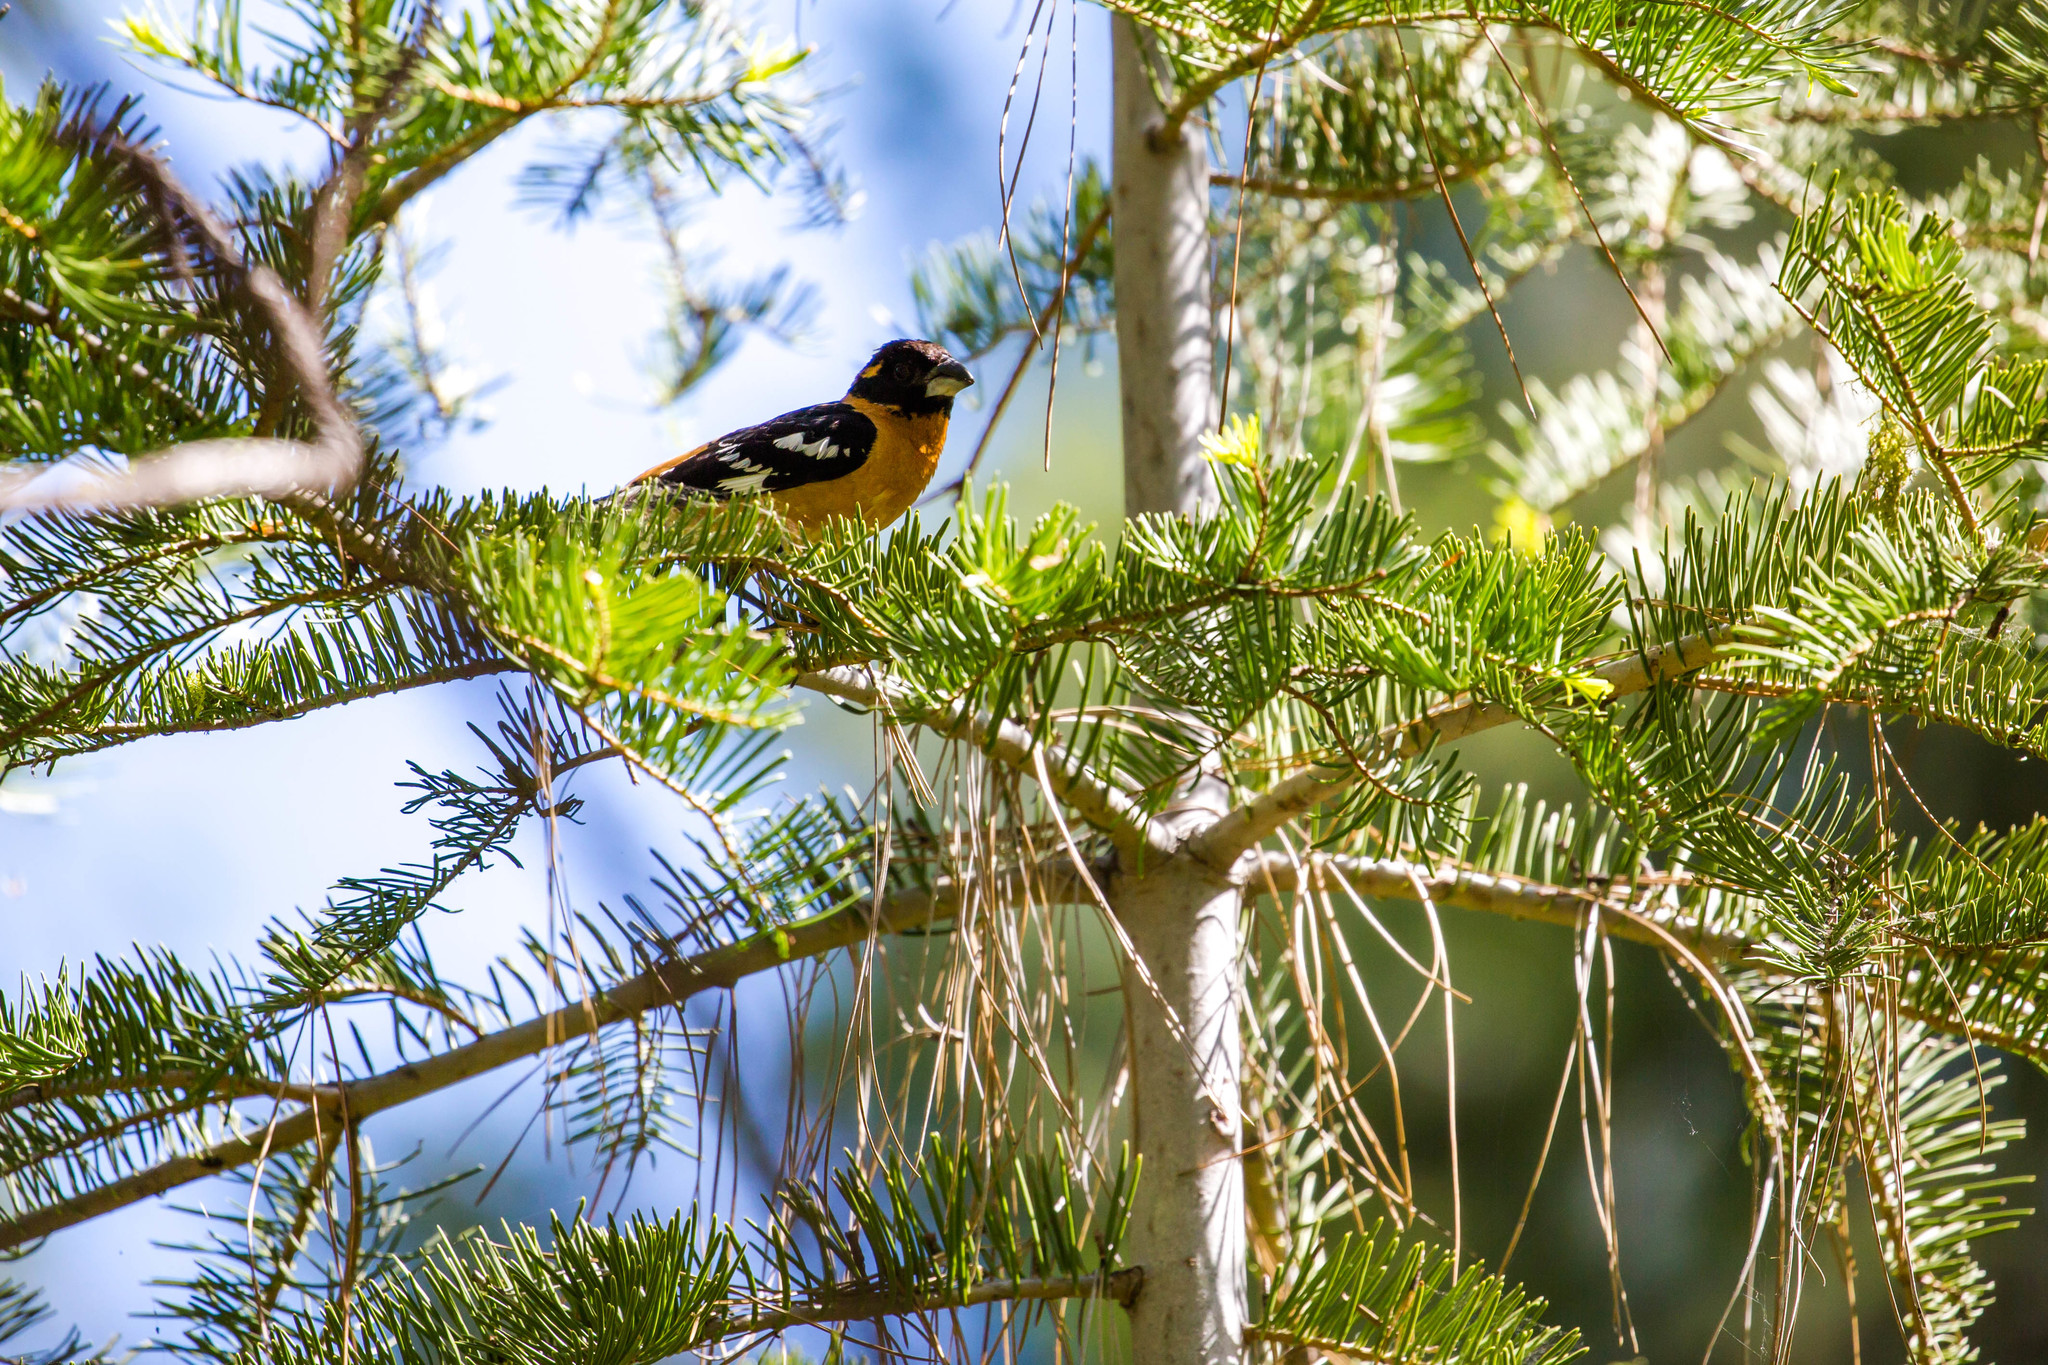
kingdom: Animalia
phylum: Chordata
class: Aves
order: Passeriformes
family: Cardinalidae
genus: Pheucticus
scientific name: Pheucticus melanocephalus
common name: Black-headed grosbeak
